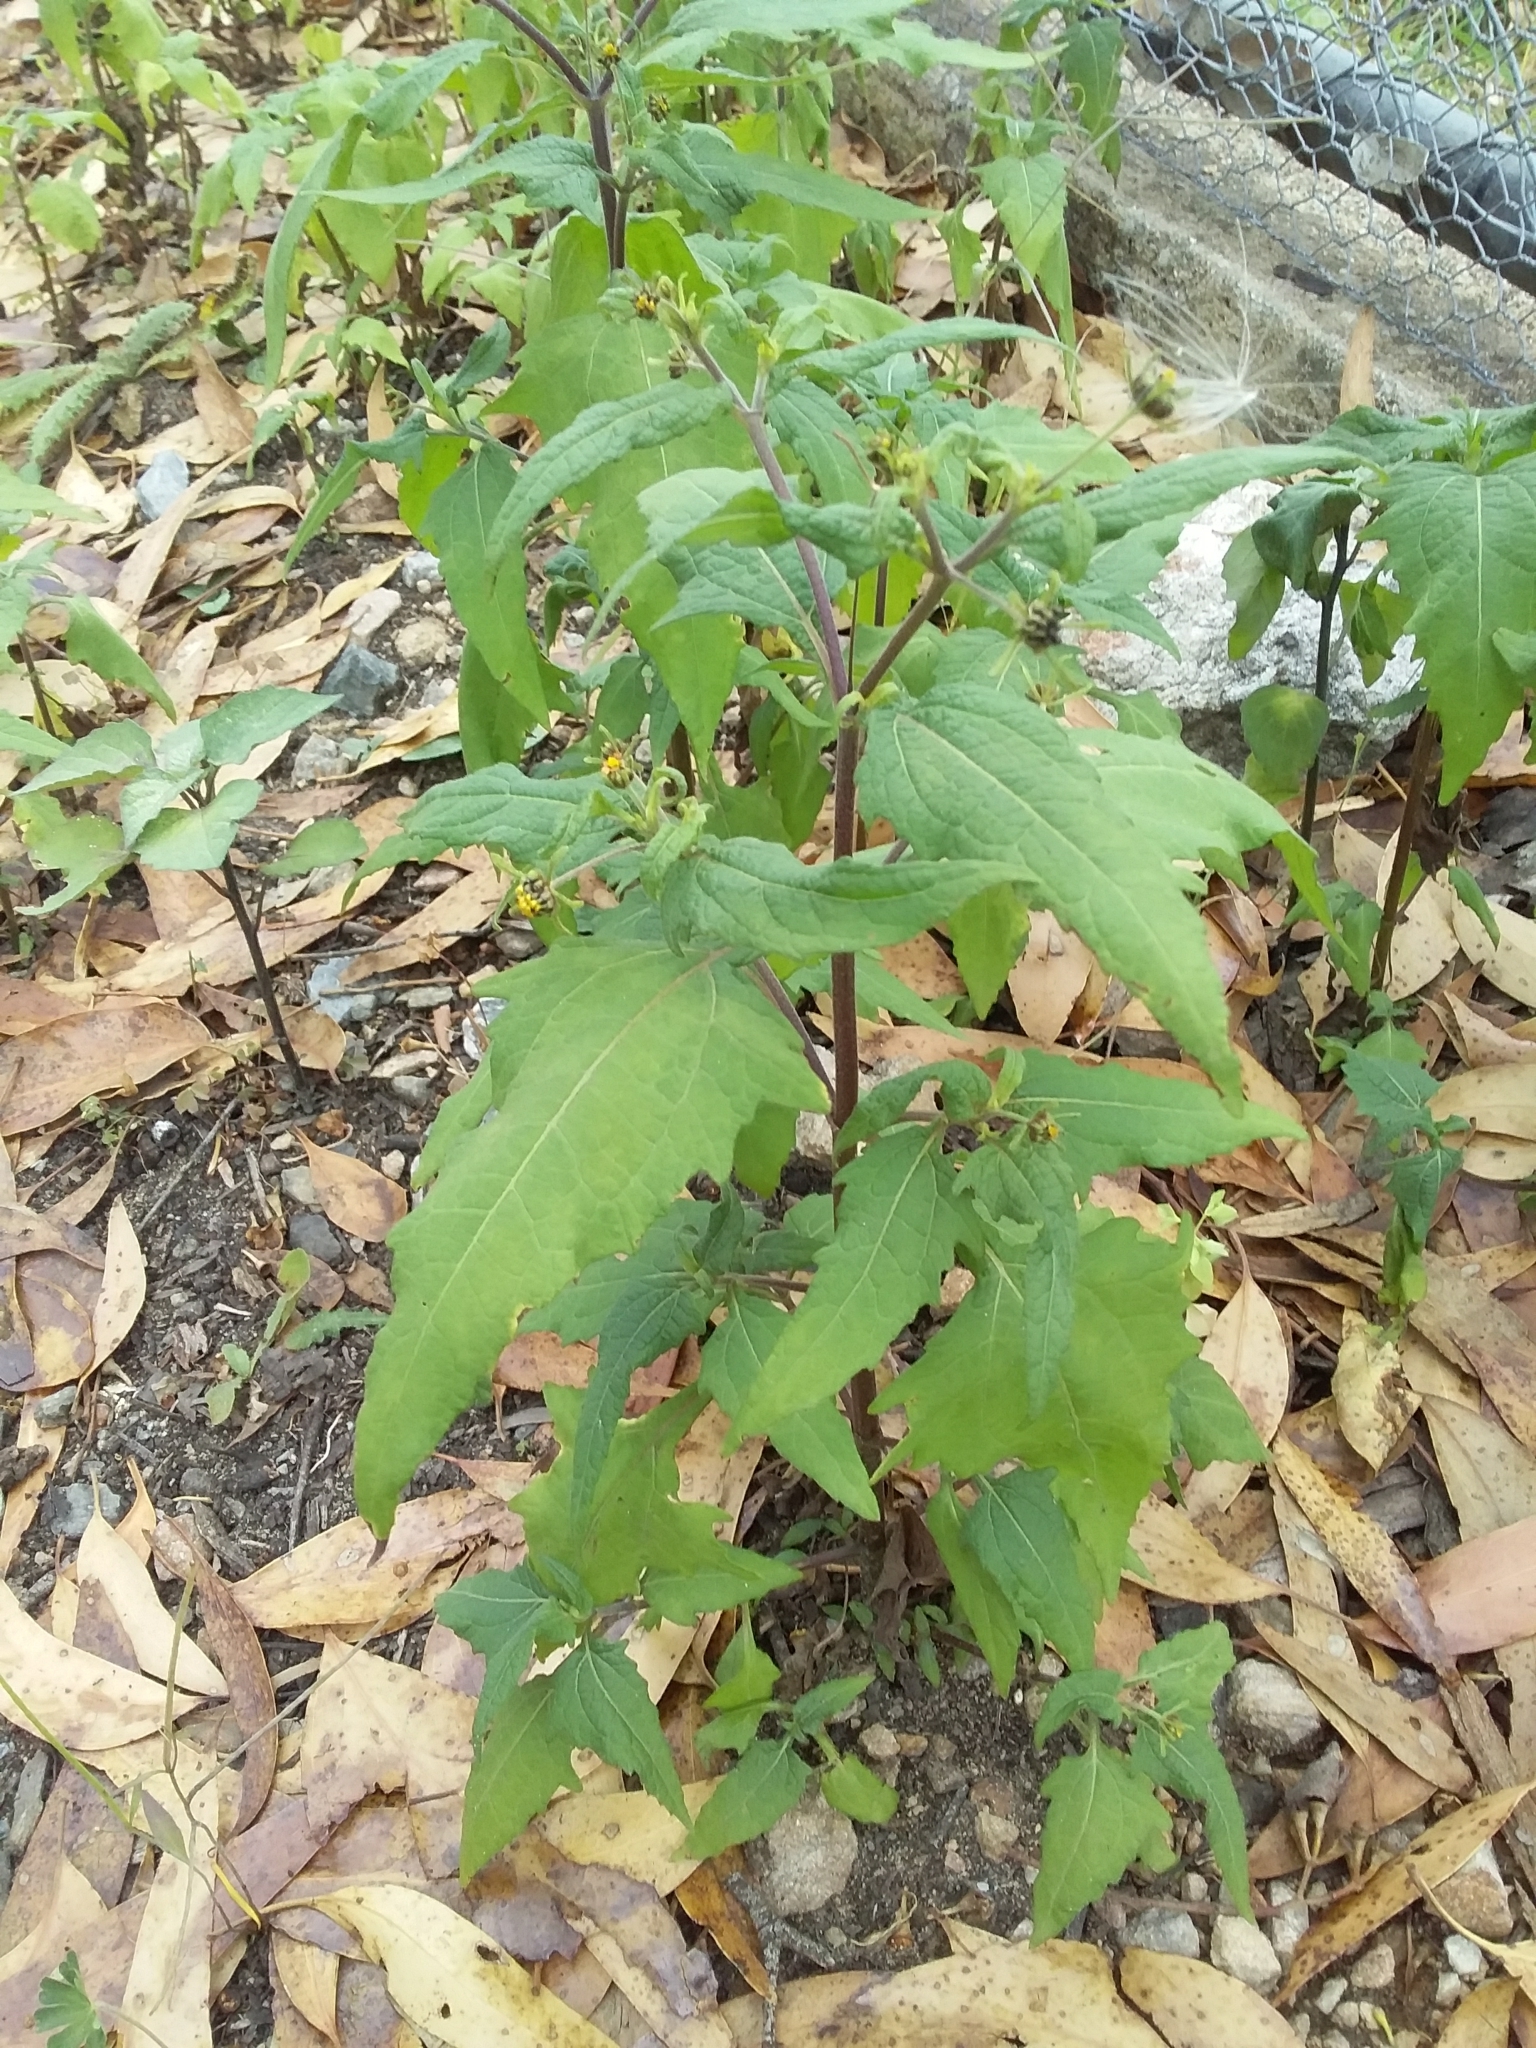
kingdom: Plantae
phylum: Tracheophyta
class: Magnoliopsida
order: Asterales
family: Asteraceae
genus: Sigesbeckia
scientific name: Sigesbeckia orientalis
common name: Eastern st paul's-wort
